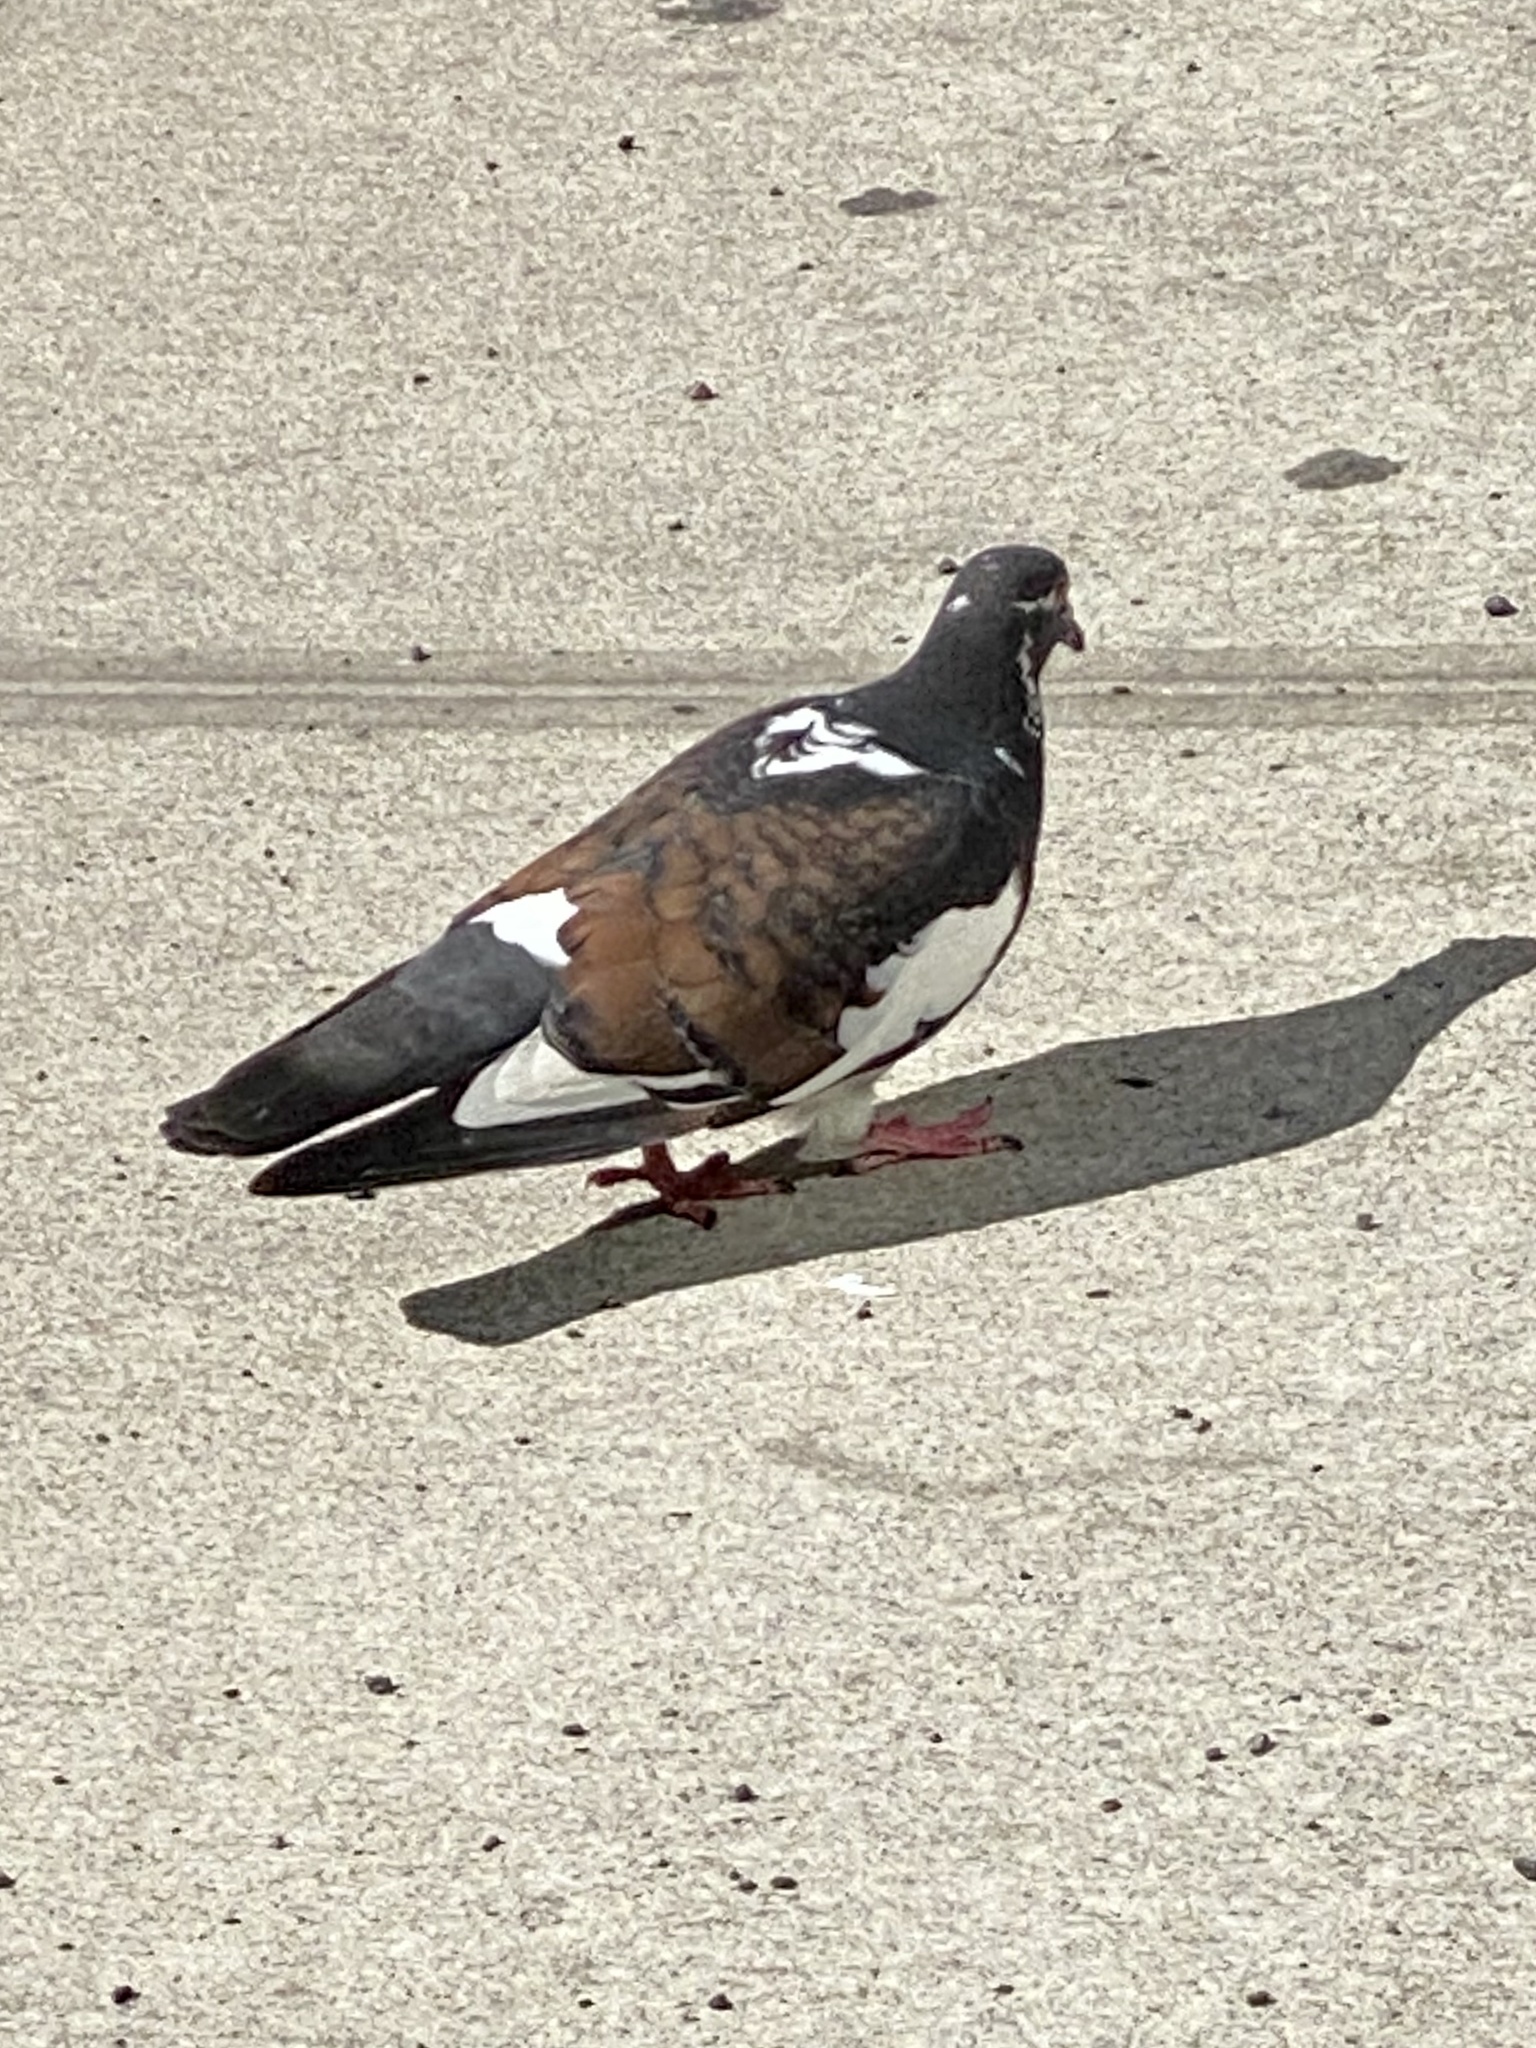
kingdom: Animalia
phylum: Chordata
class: Aves
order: Columbiformes
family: Columbidae
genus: Columba
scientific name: Columba livia
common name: Rock pigeon
